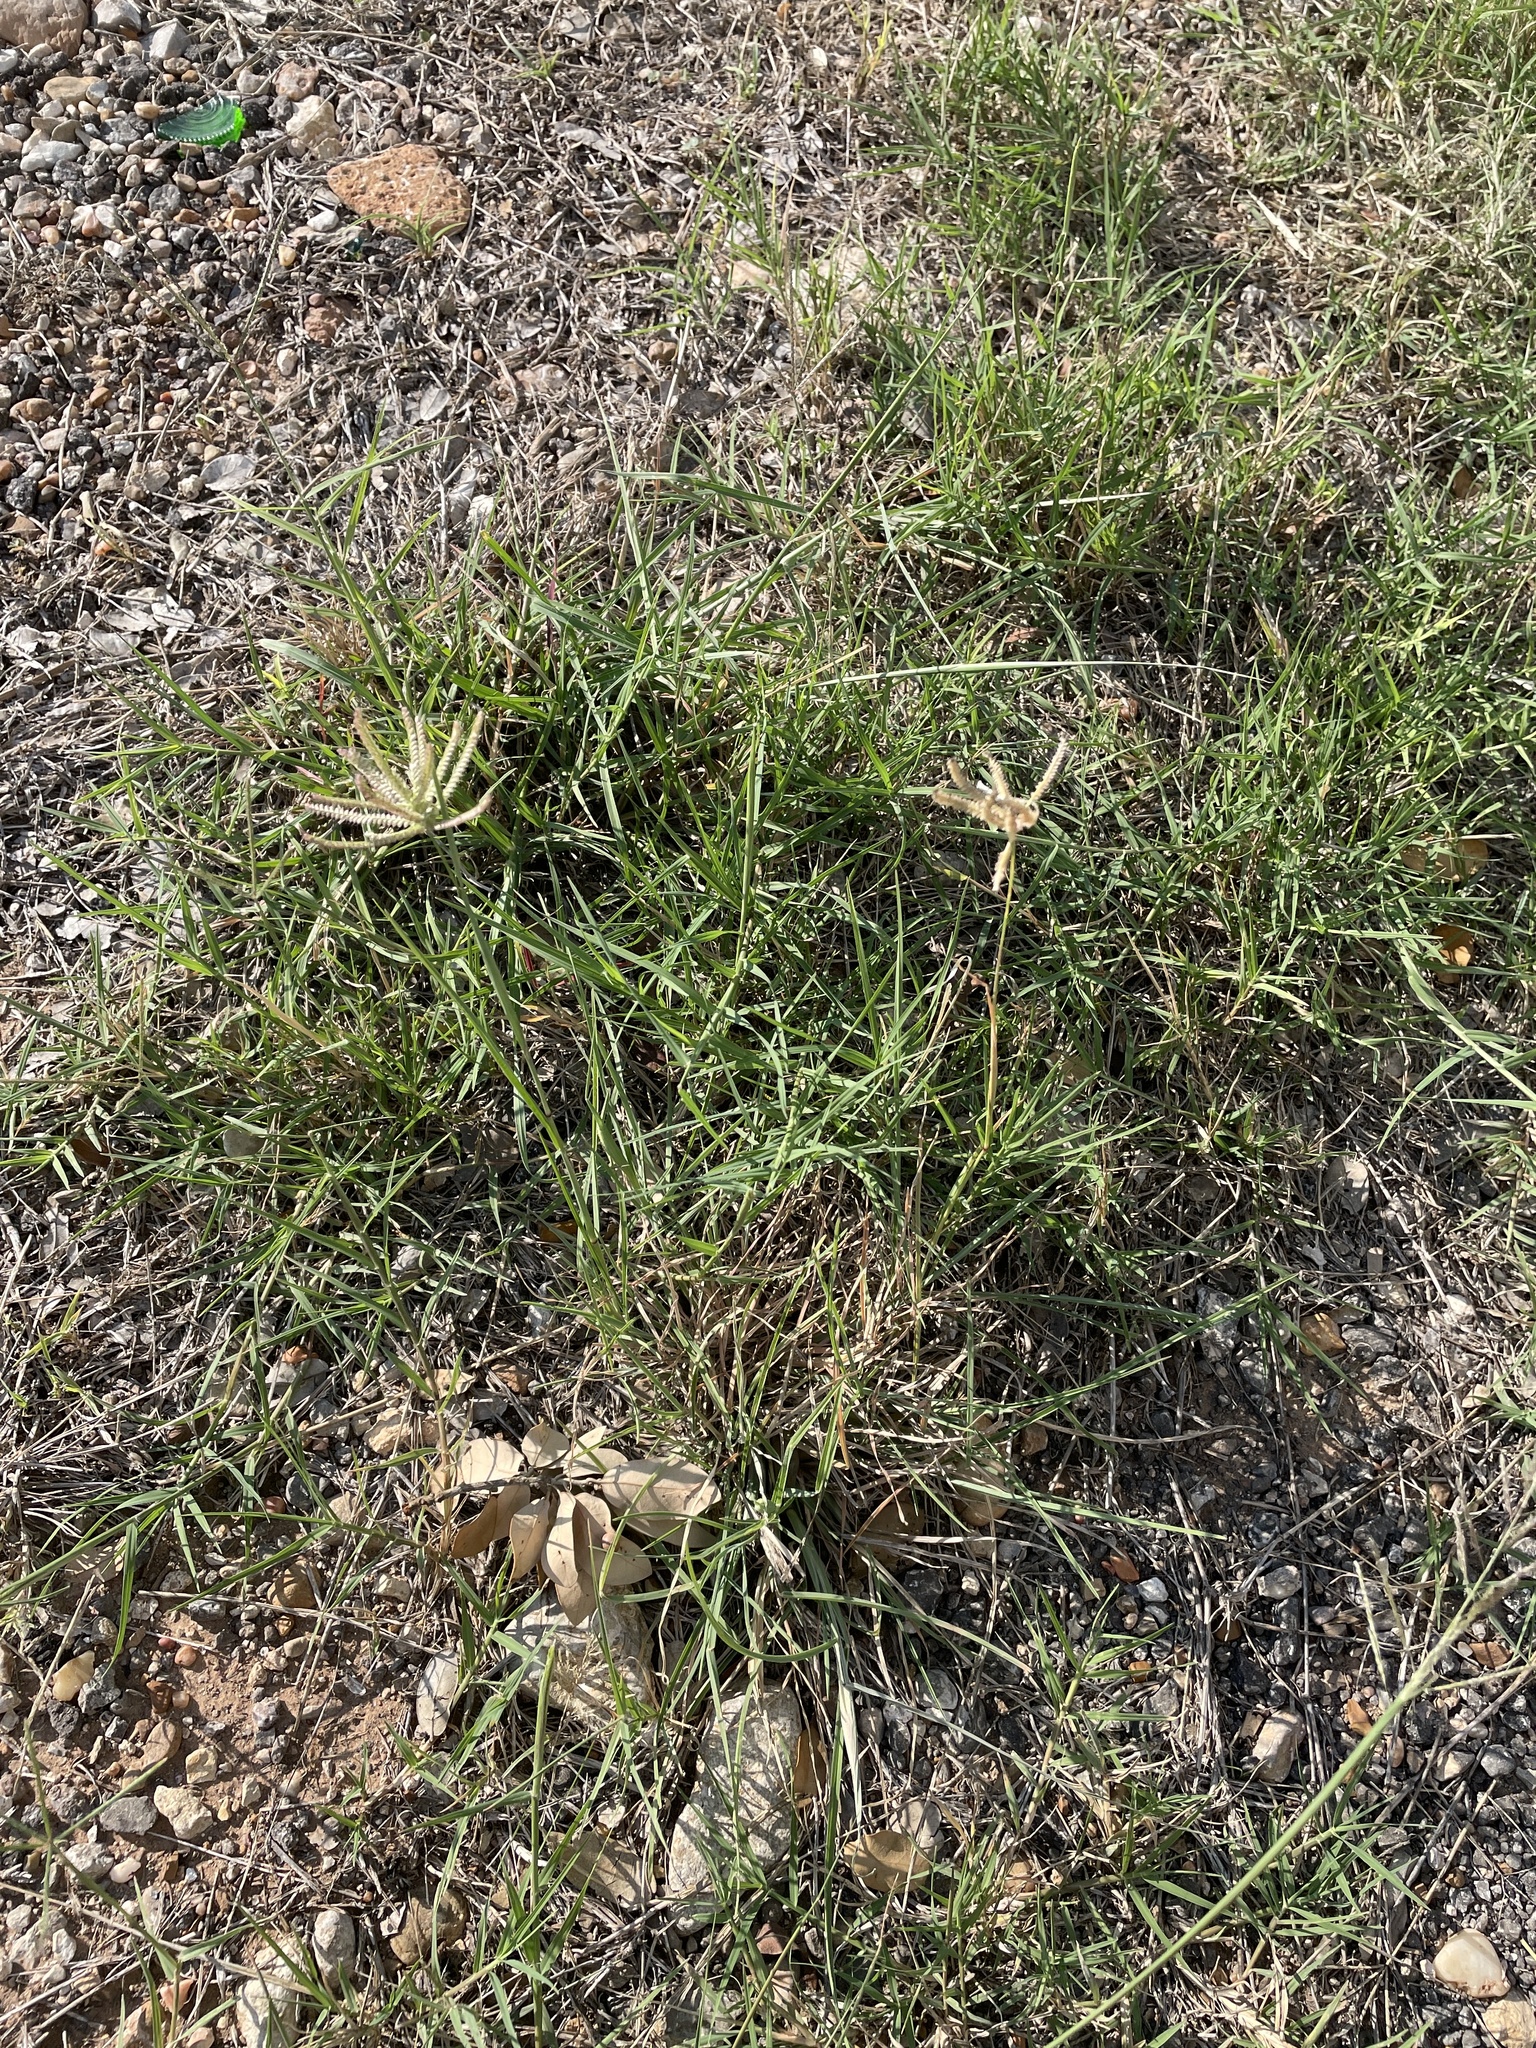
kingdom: Plantae
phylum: Tracheophyta
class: Liliopsida
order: Poales
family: Poaceae
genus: Chloris
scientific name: Chloris cucullata
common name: Hooded windmill grass
